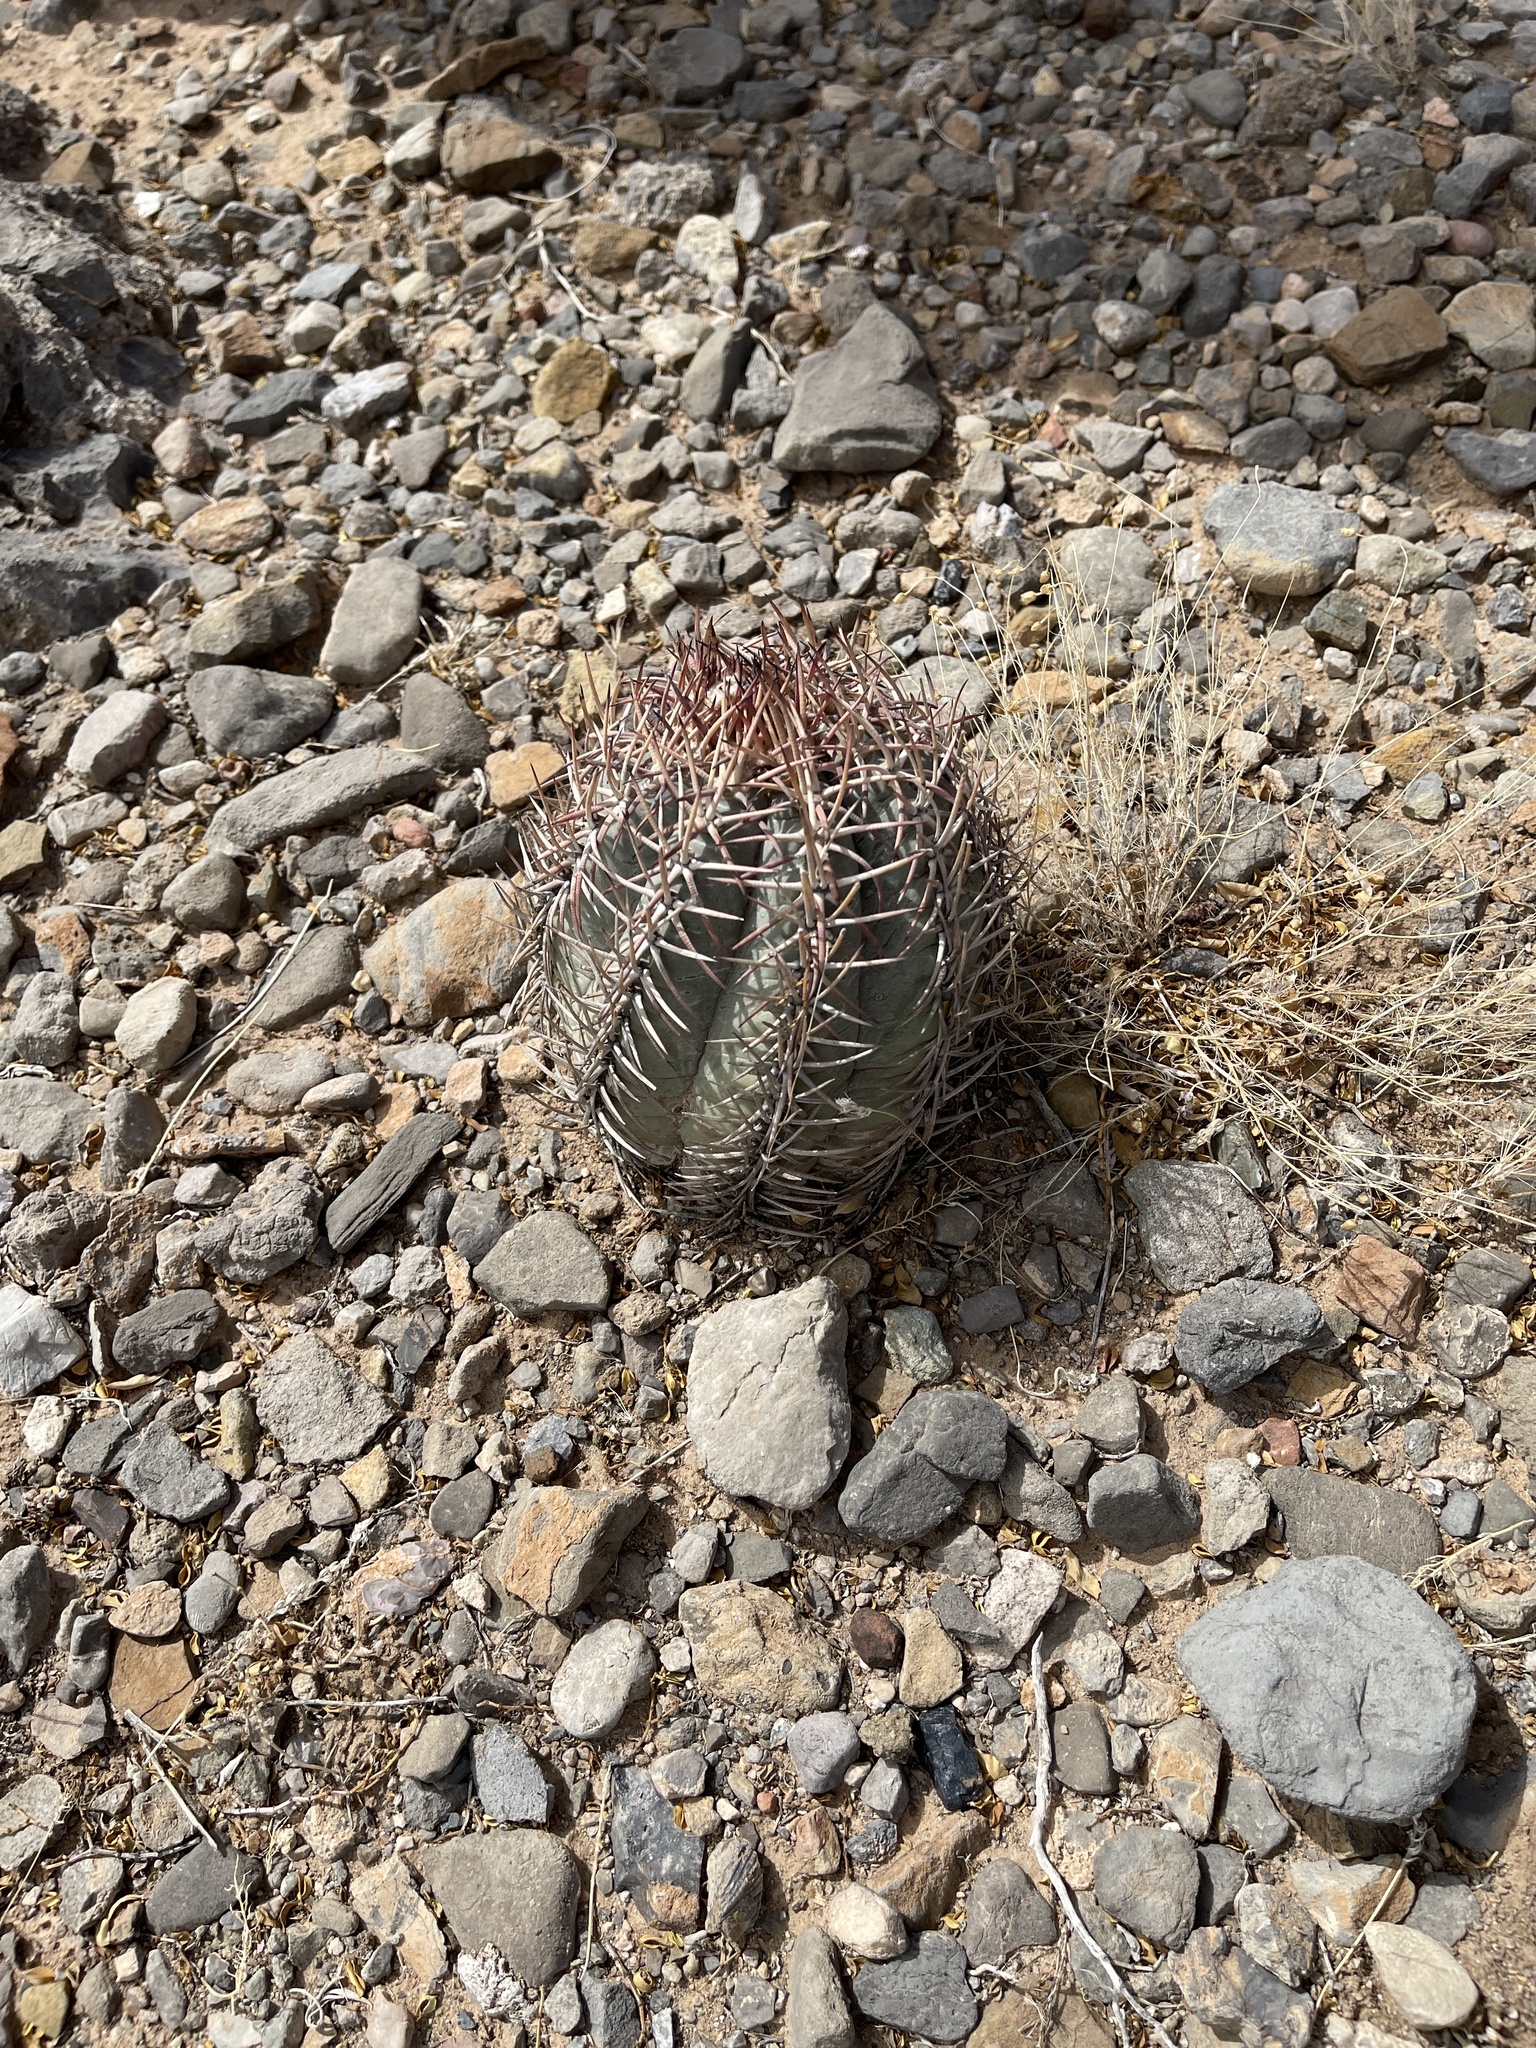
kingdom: Plantae
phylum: Tracheophyta
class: Magnoliopsida
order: Caryophyllales
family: Cactaceae
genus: Echinocactus
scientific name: Echinocactus horizonthalonius
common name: Devilshead
